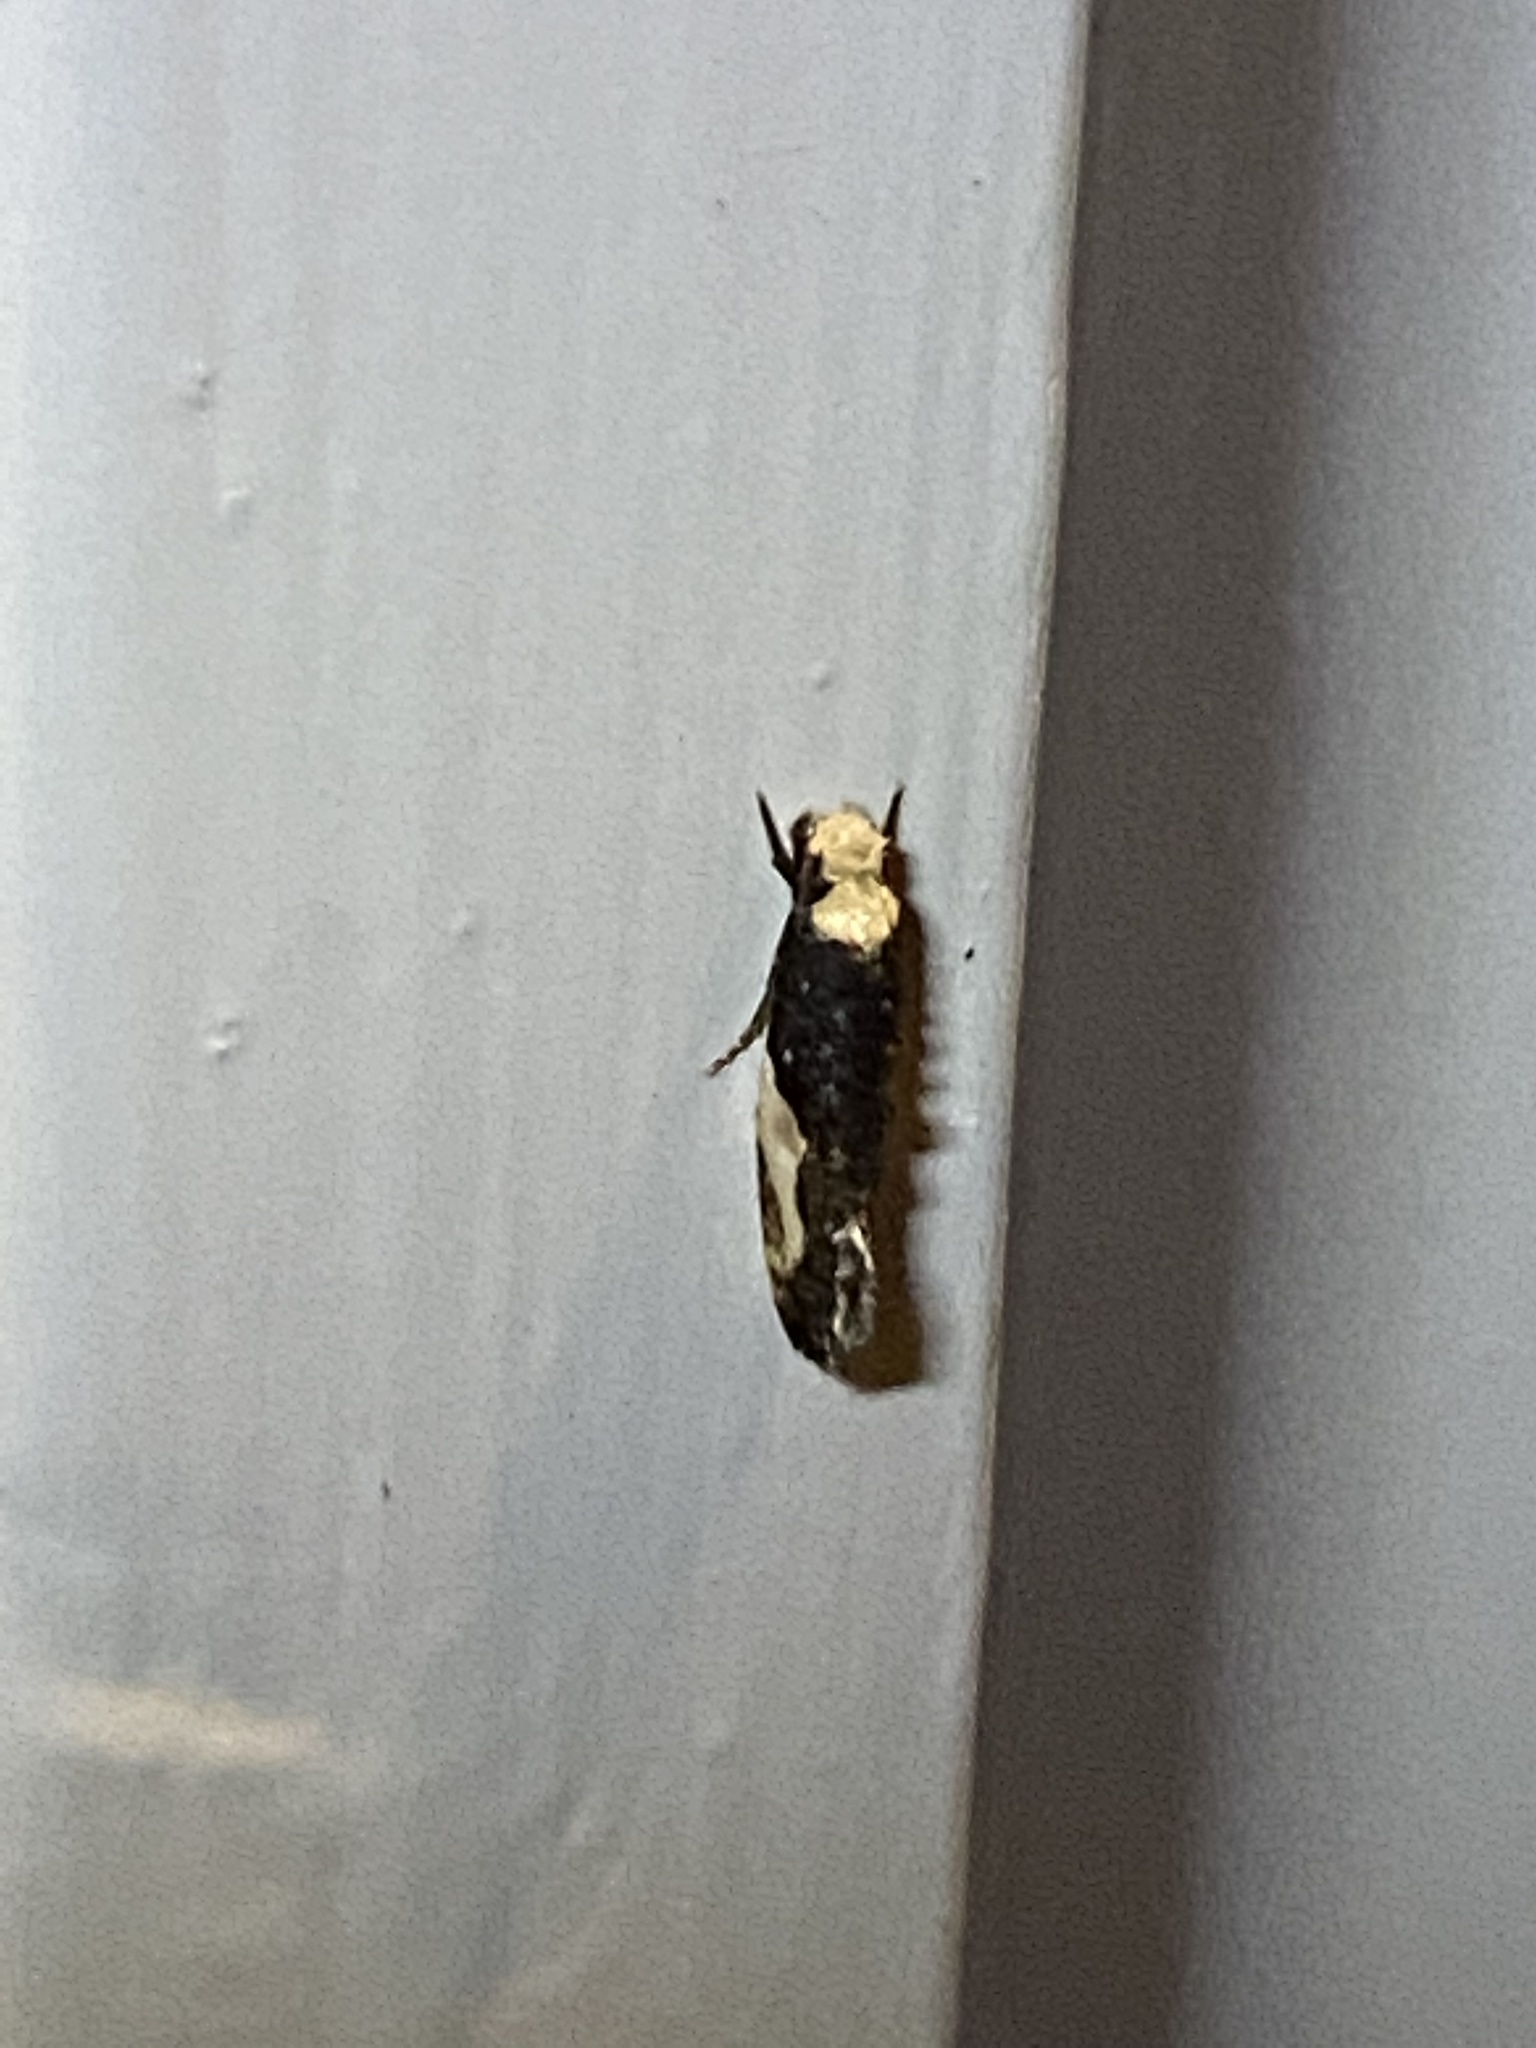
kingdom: Animalia
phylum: Arthropoda
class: Insecta
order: Lepidoptera
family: Tineidae
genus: Monopis
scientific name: Monopis longella
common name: Pavlovski's monopis moth
